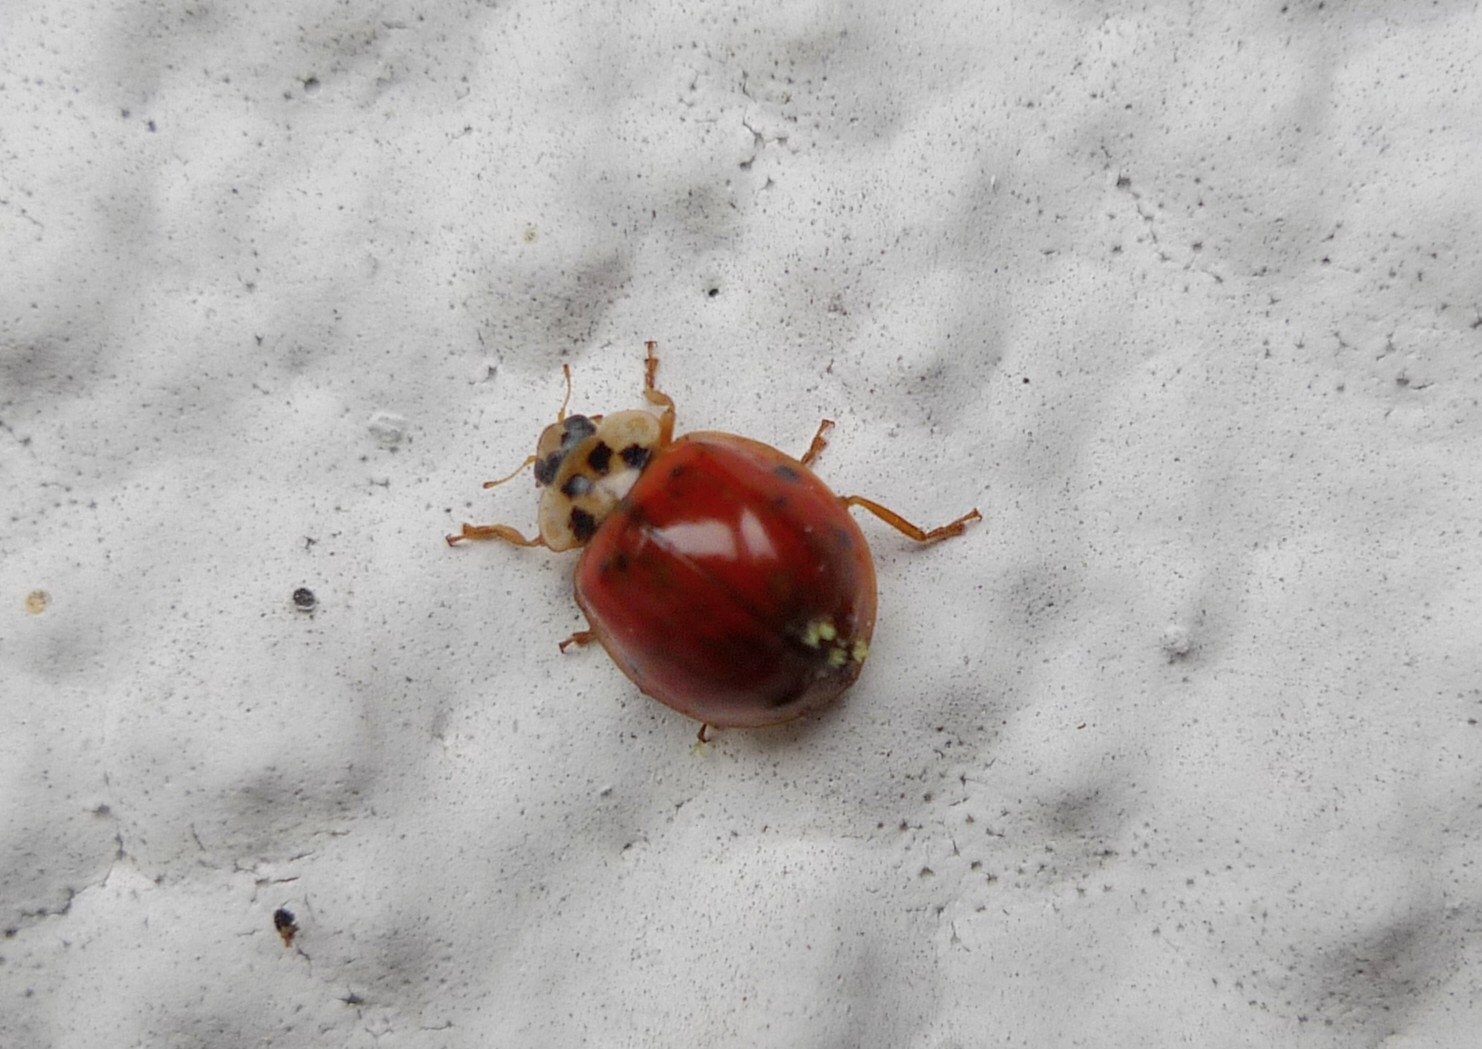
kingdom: Animalia
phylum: Arthropoda
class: Insecta
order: Coleoptera
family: Coccinellidae
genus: Harmonia
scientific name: Harmonia axyridis
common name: Harlequin ladybird
